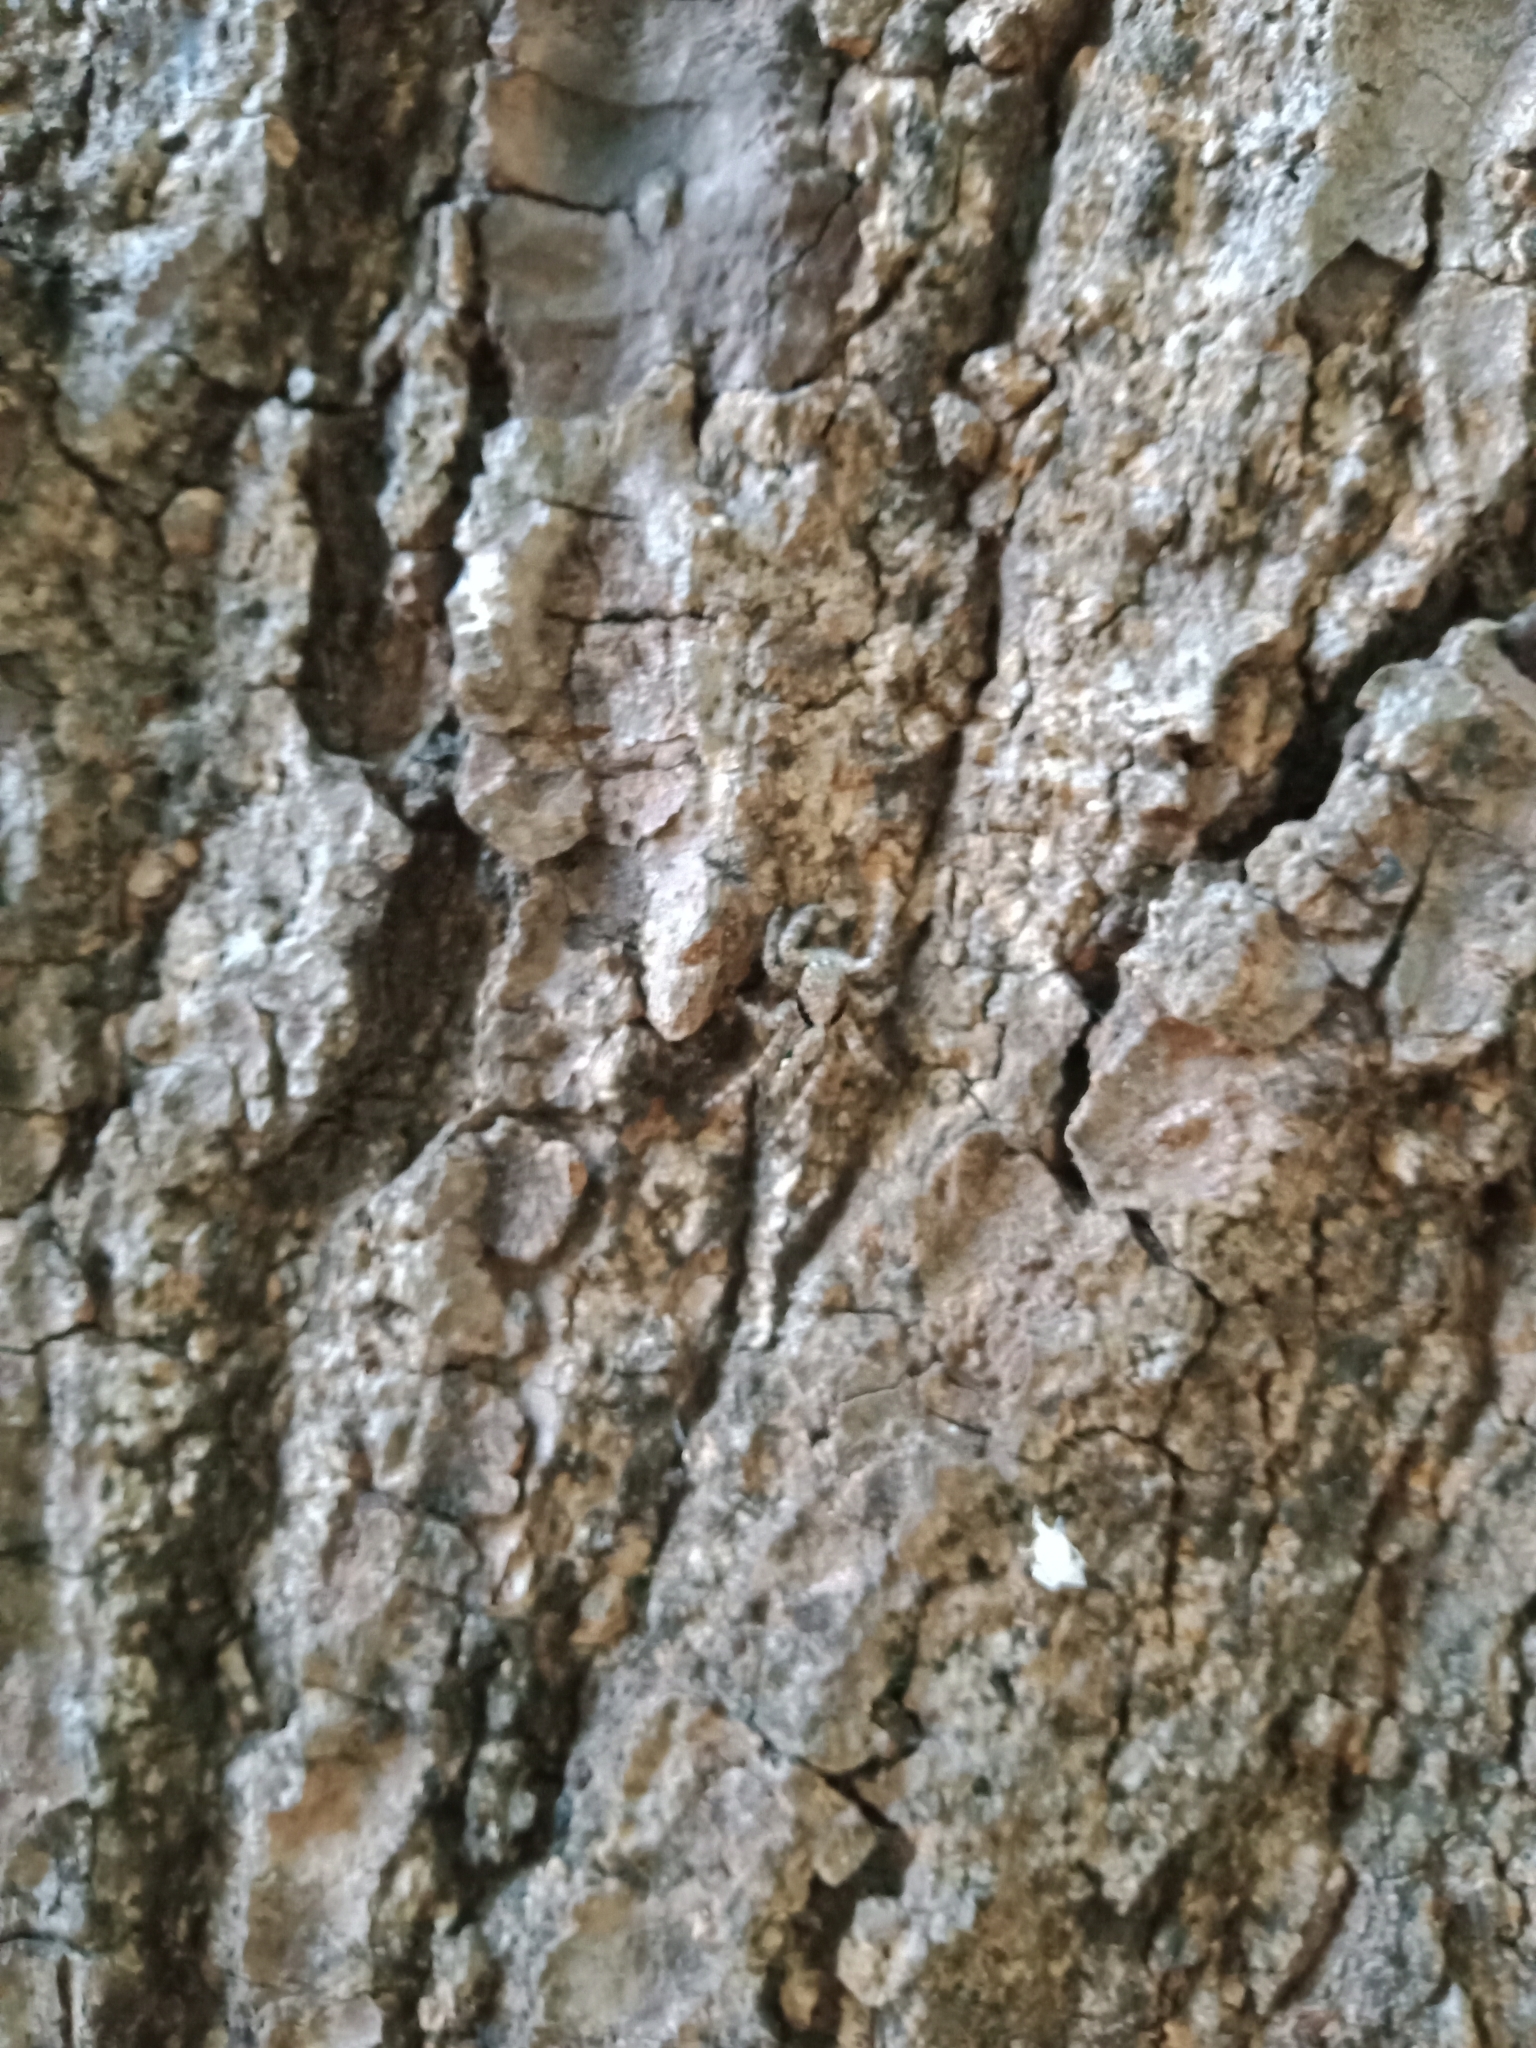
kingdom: Animalia
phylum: Arthropoda
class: Arachnida
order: Araneae
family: Salticidae
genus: Platycryptus
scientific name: Platycryptus magnus
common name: Jumping spiders
